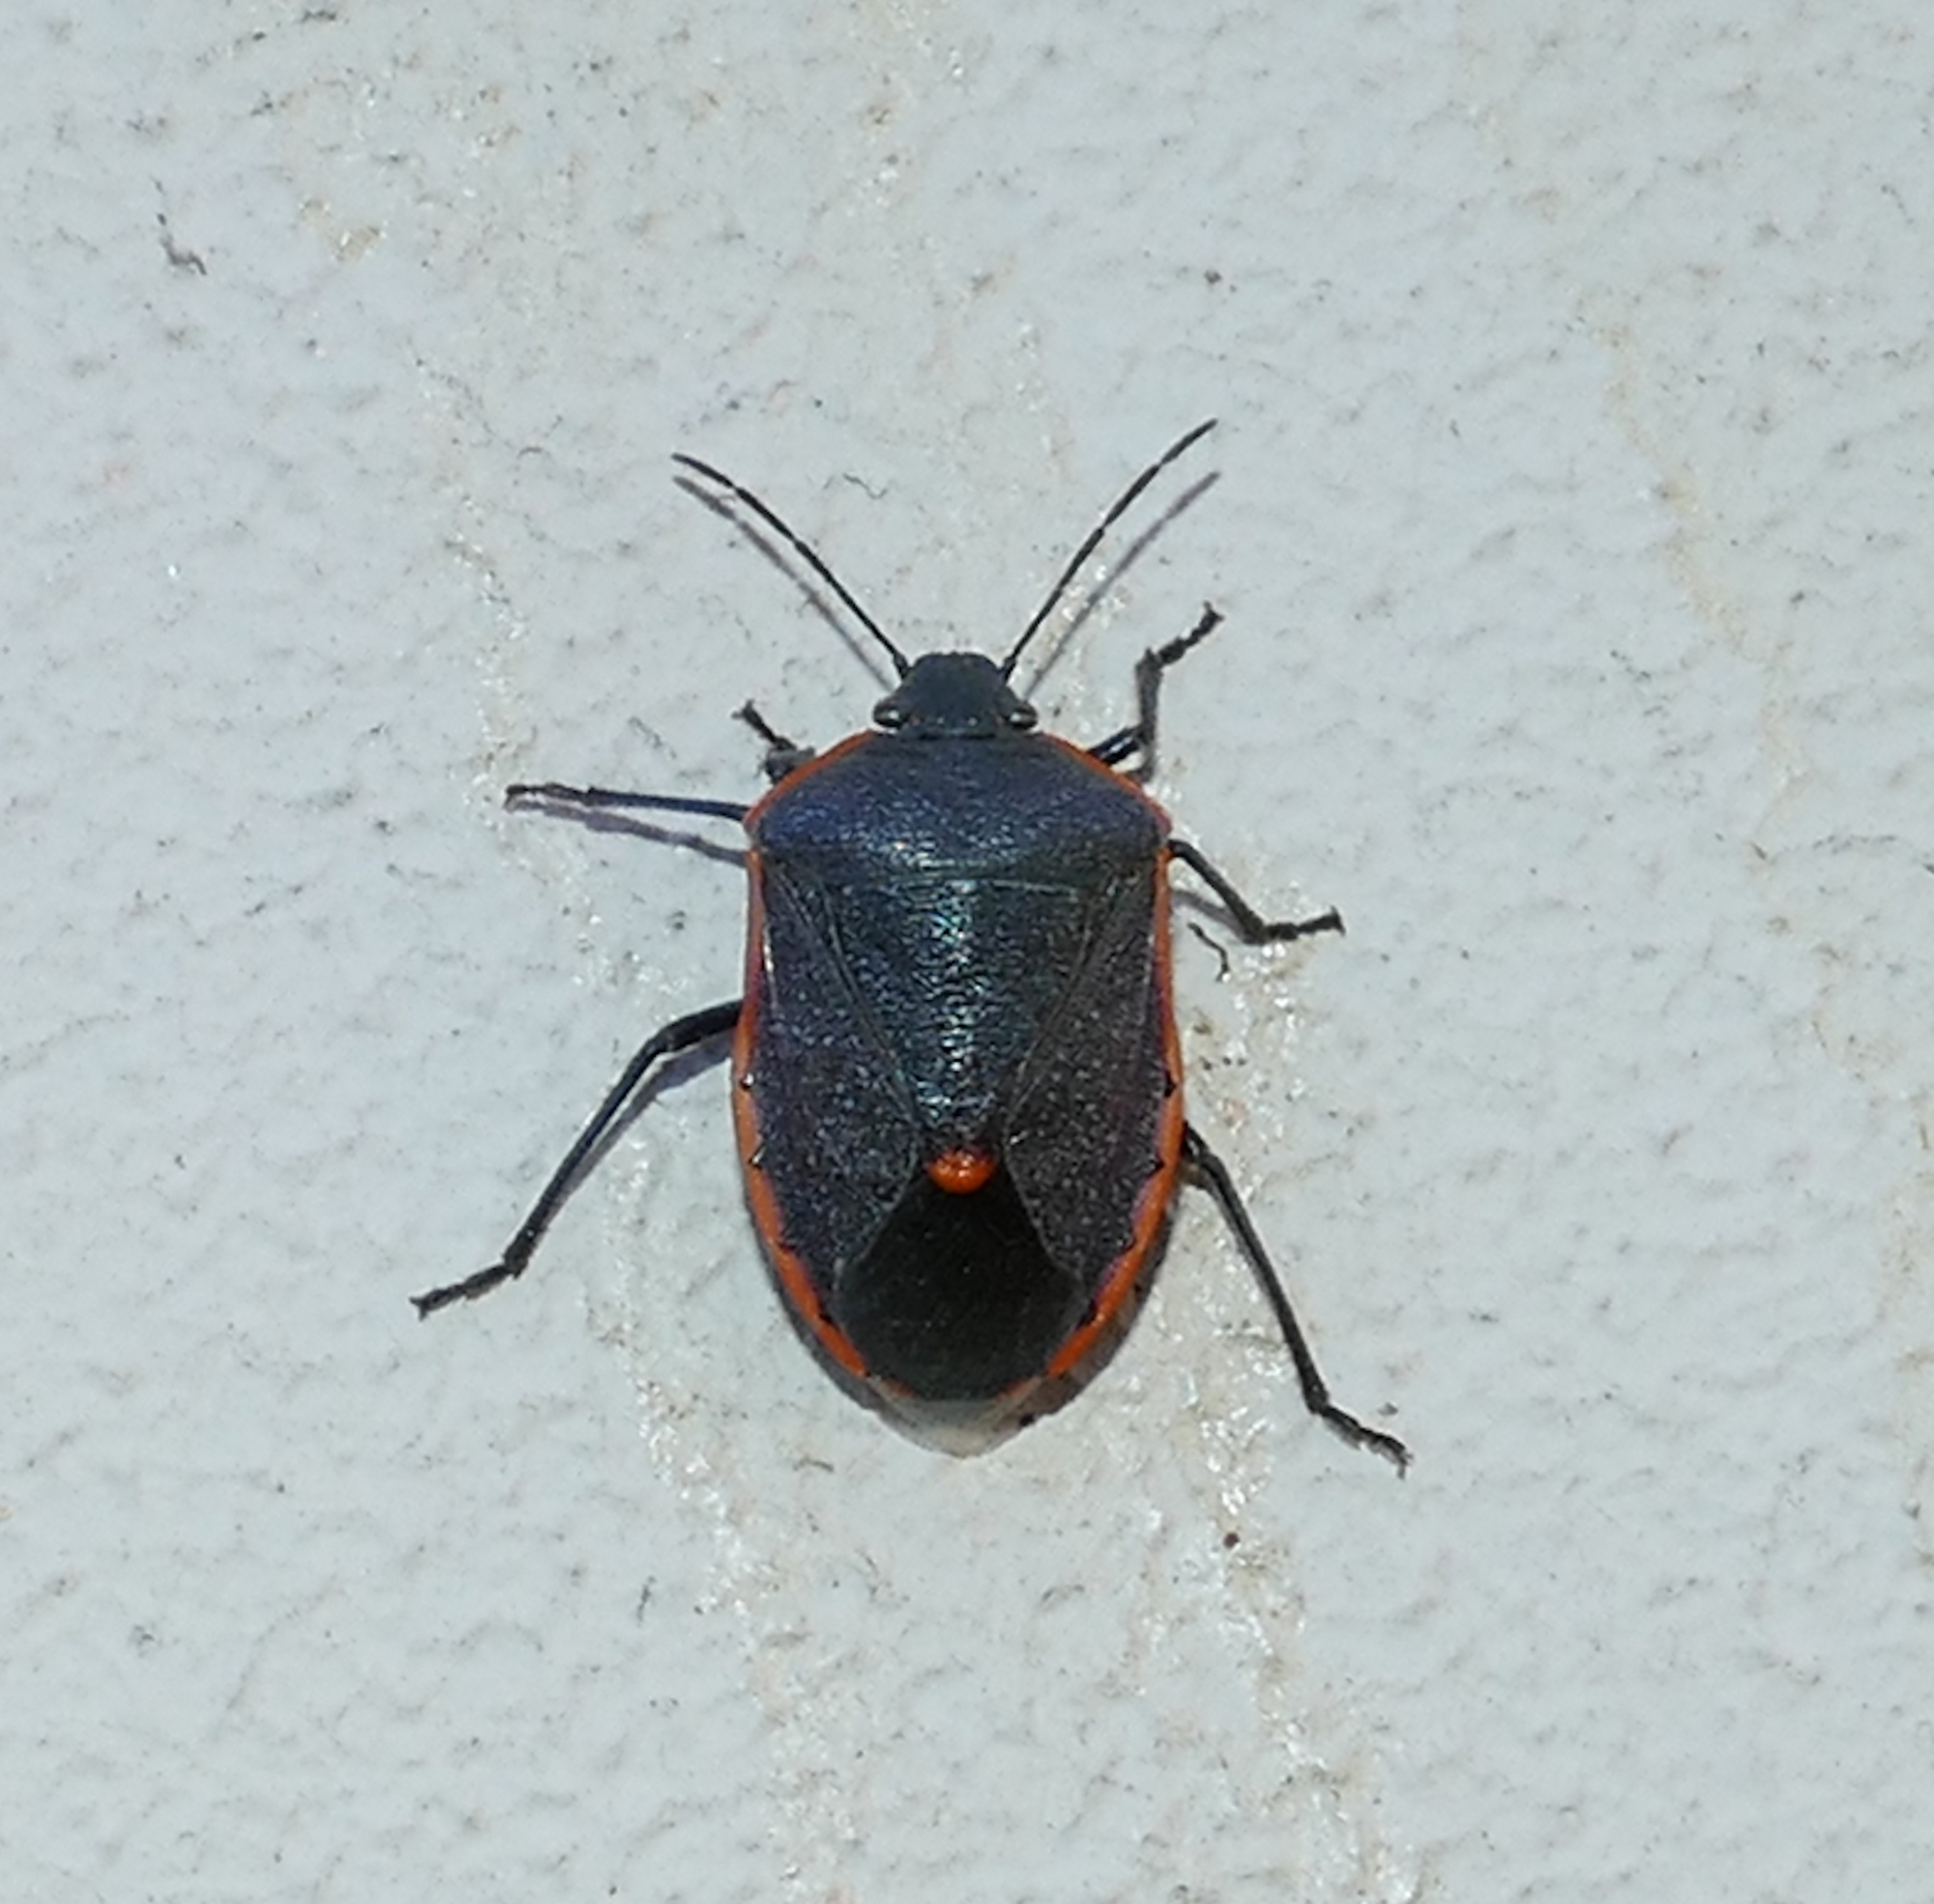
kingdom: Animalia
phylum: Arthropoda
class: Insecta
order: Hemiptera
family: Pentatomidae
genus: Chlorochroa
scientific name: Chlorochroa ligata
